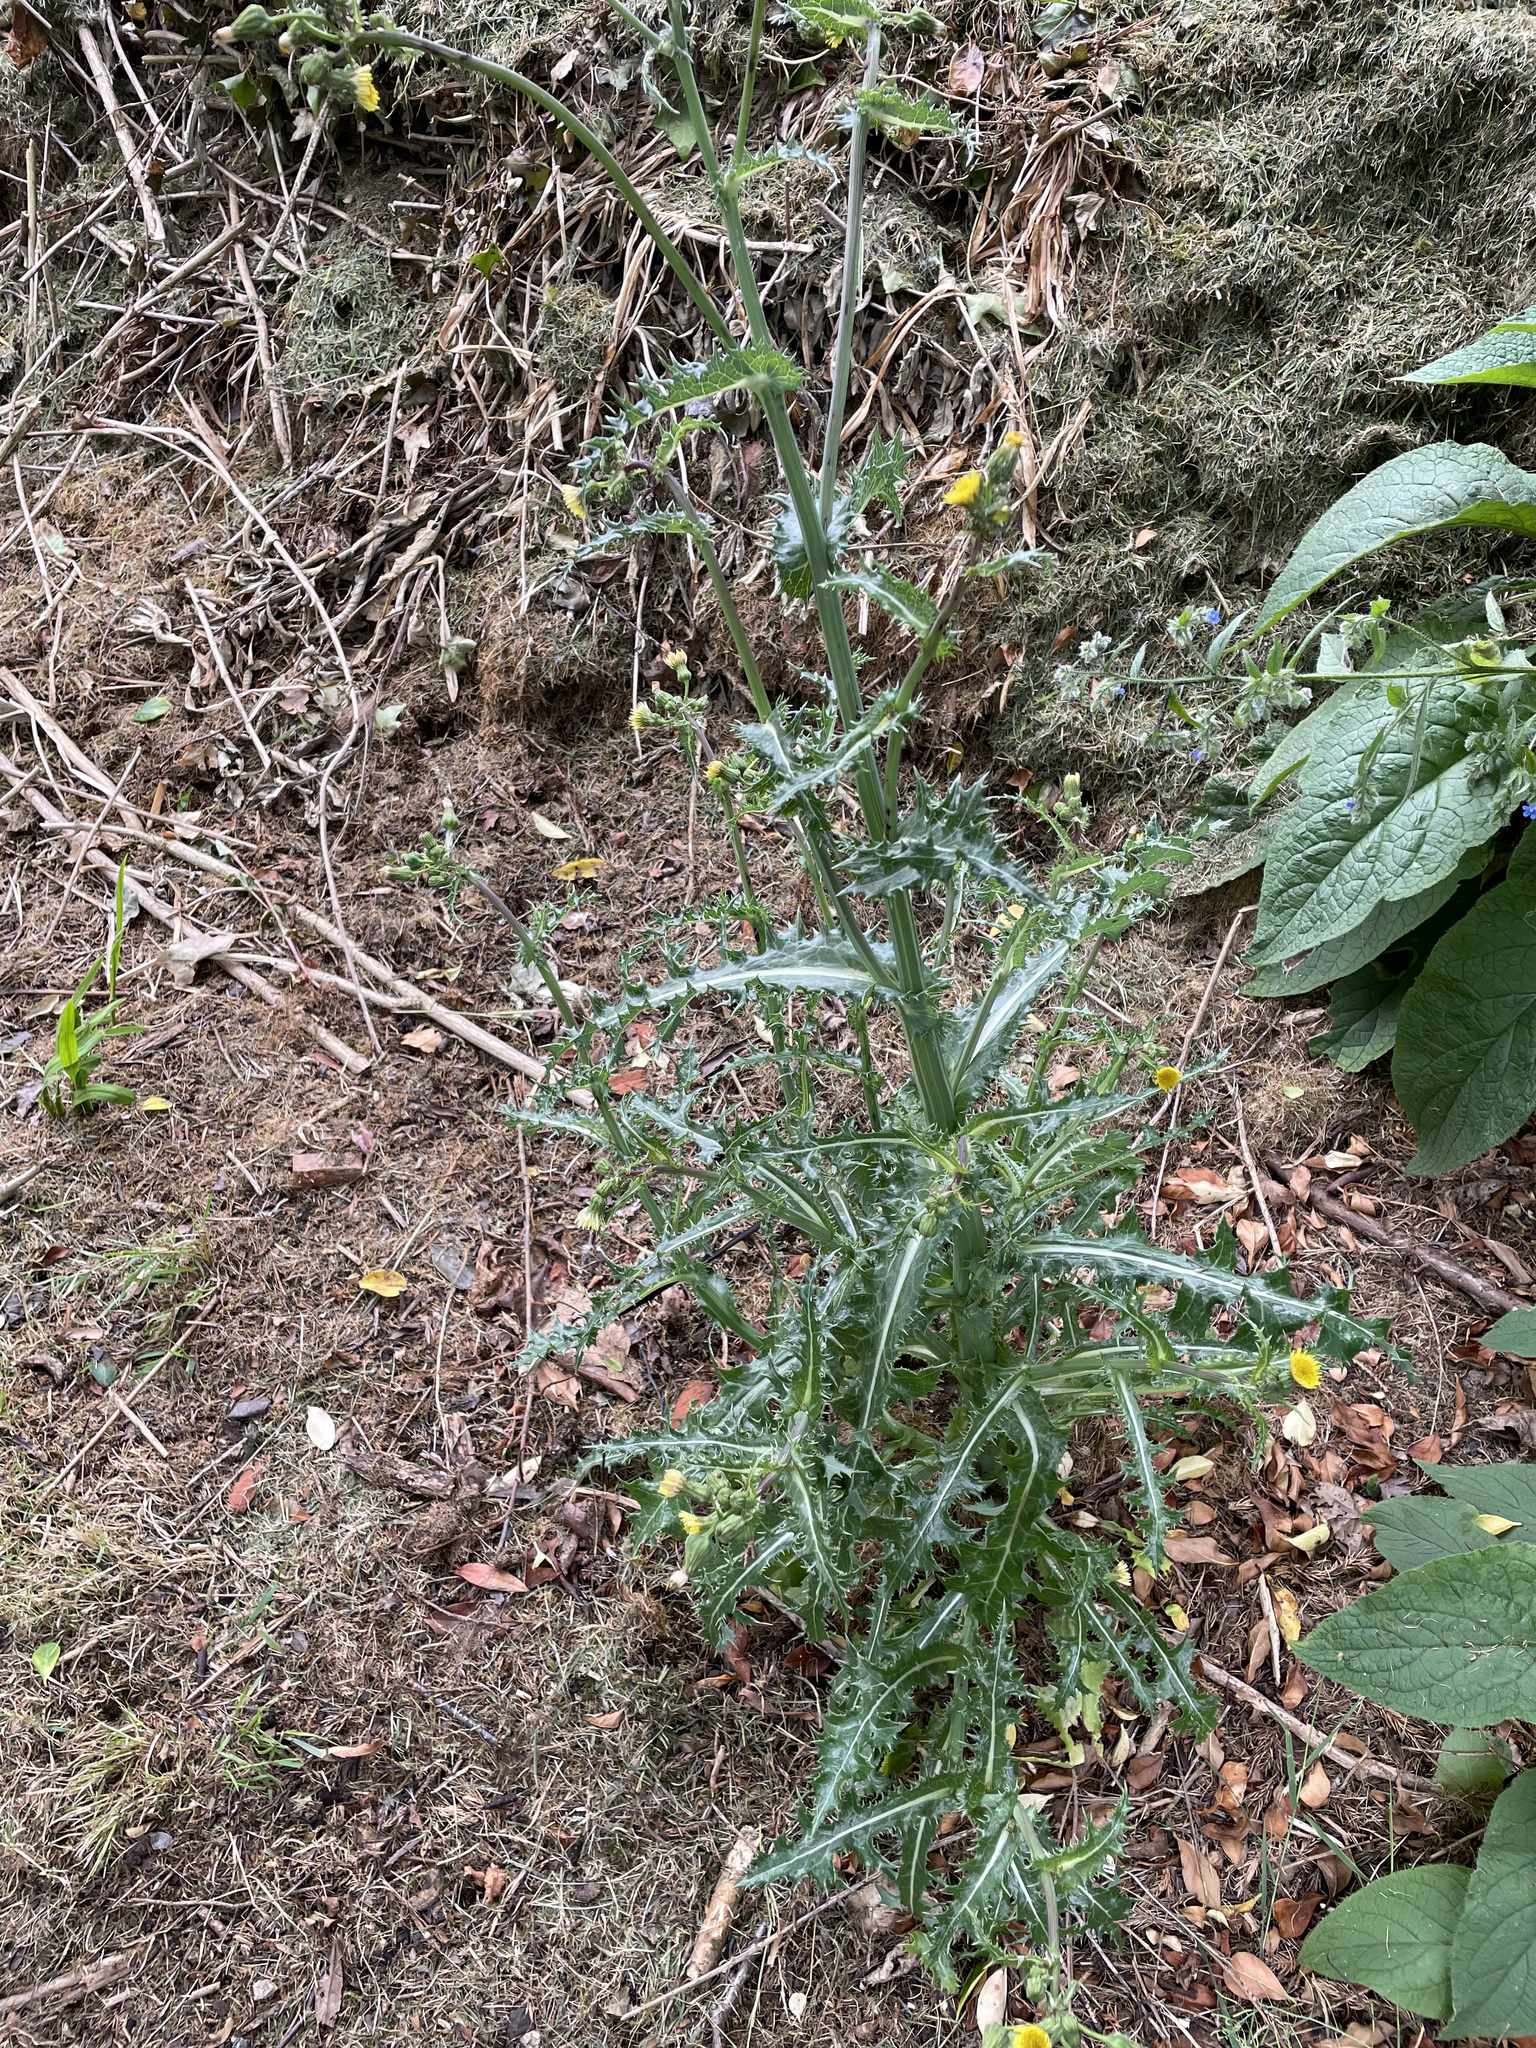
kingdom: Plantae
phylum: Tracheophyta
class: Magnoliopsida
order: Asterales
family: Asteraceae
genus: Sonchus
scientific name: Sonchus asper
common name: Prickly sow-thistle
